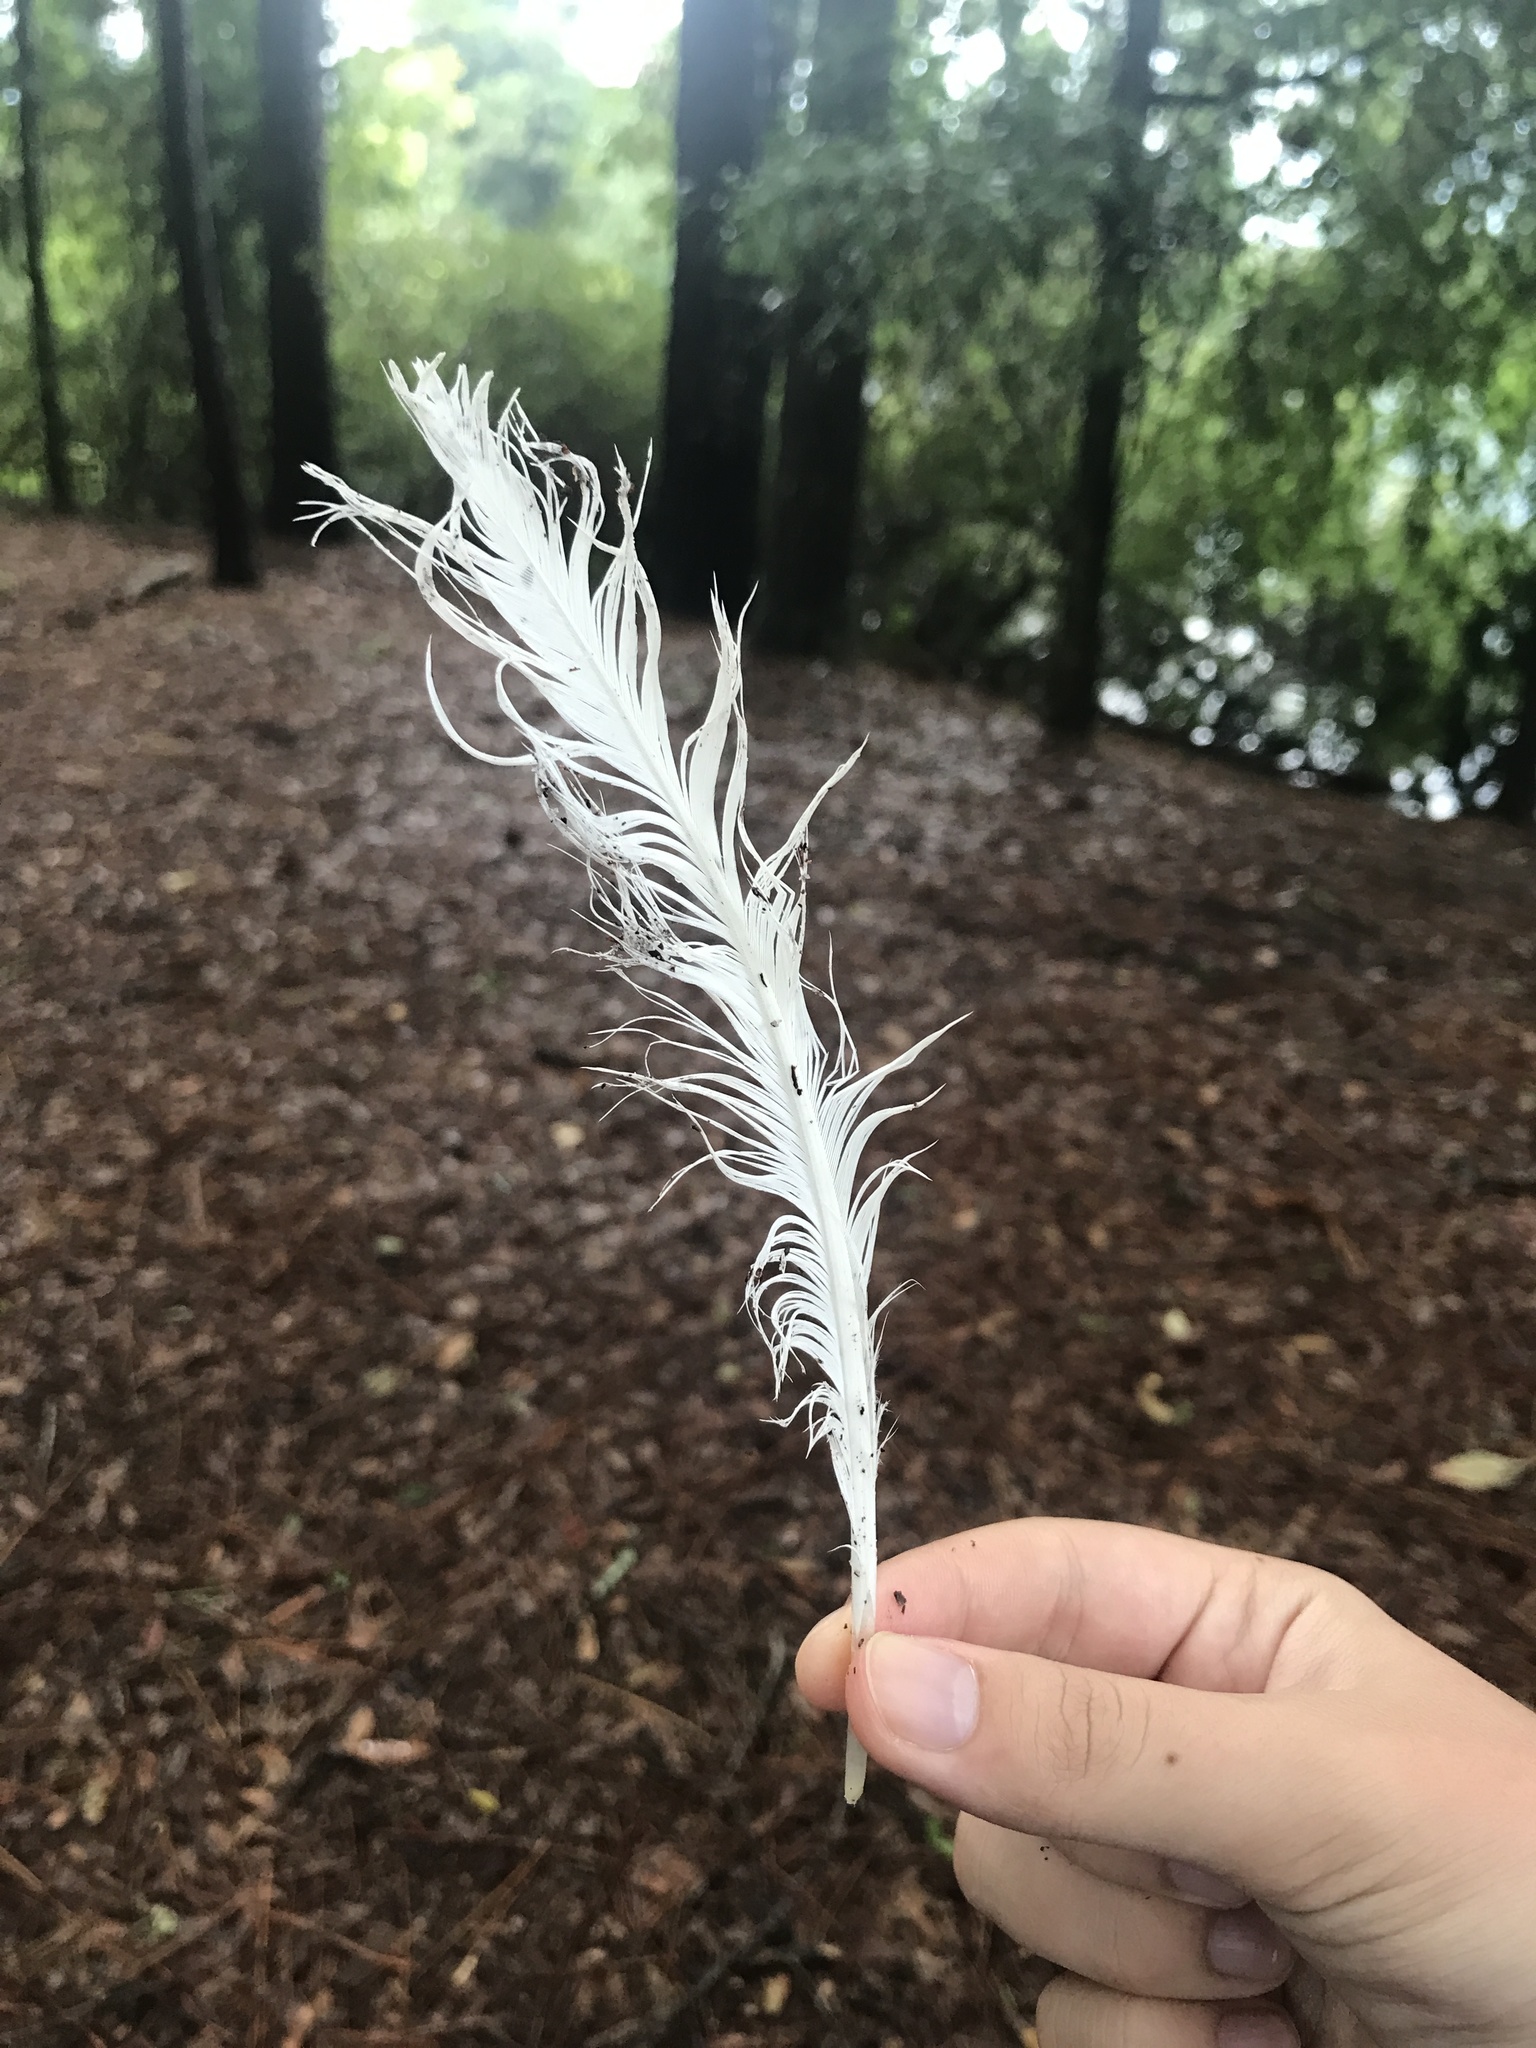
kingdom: Animalia
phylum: Chordata
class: Aves
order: Pelecaniformes
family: Ardeidae
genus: Ardea
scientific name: Ardea alba
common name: Great egret
